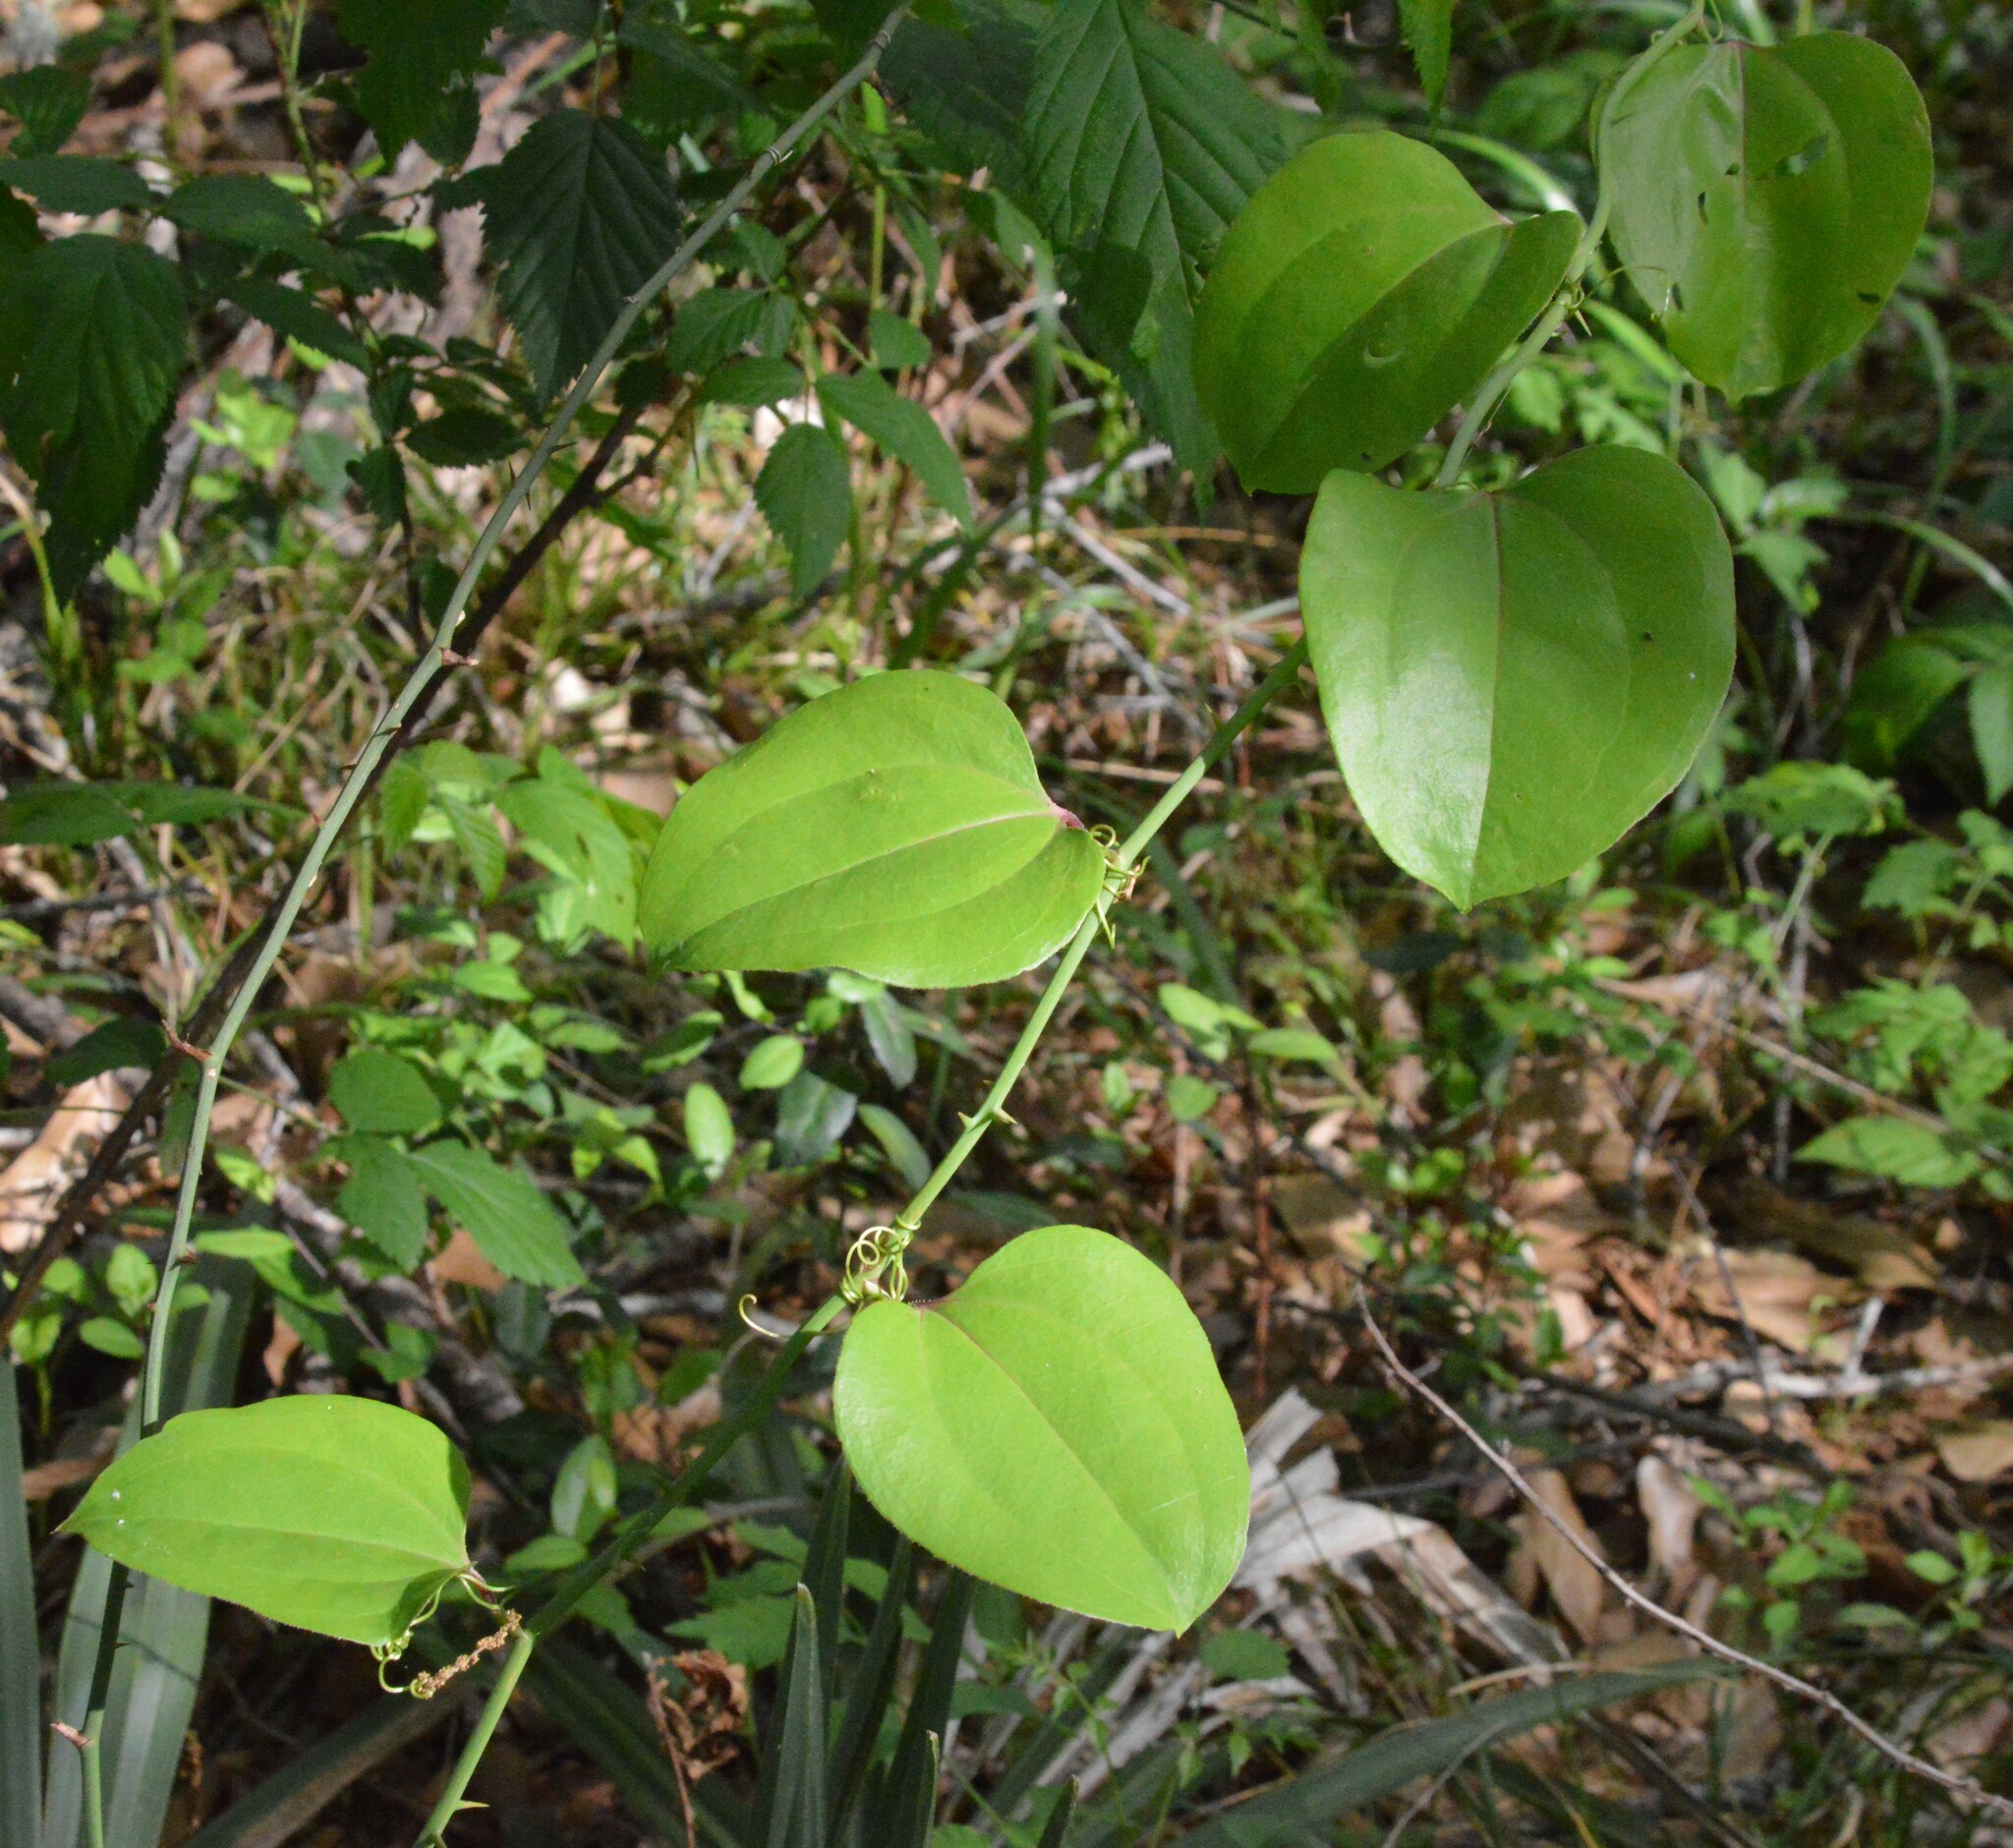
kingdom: Plantae
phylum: Tracheophyta
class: Liliopsida
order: Liliales
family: Smilacaceae
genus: Smilax
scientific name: Smilax rotundifolia
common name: Bullbriar
